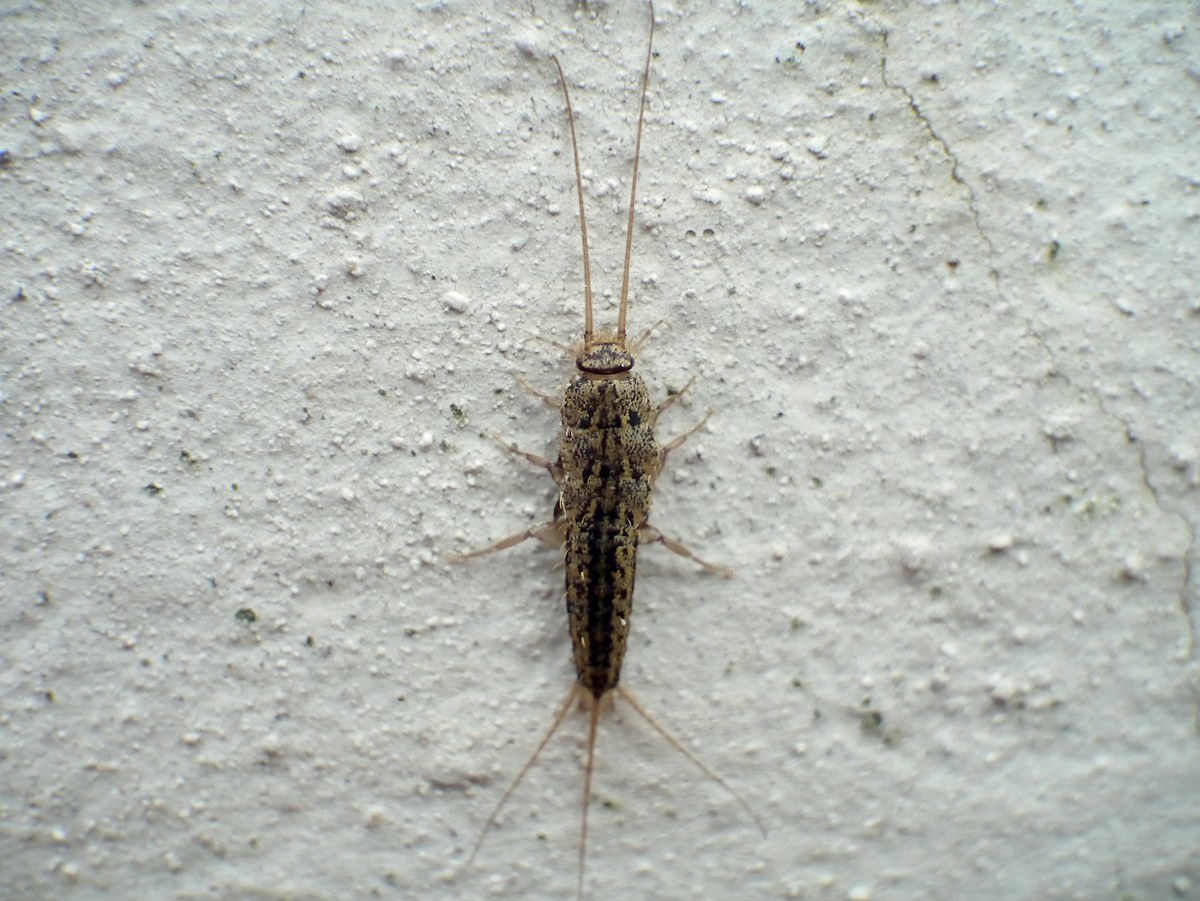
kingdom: Animalia
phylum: Arthropoda
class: Insecta
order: Zygentoma
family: Lepismatidae
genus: Ctenolepisma
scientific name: Ctenolepisma lineata
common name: Four-lined silverfish
